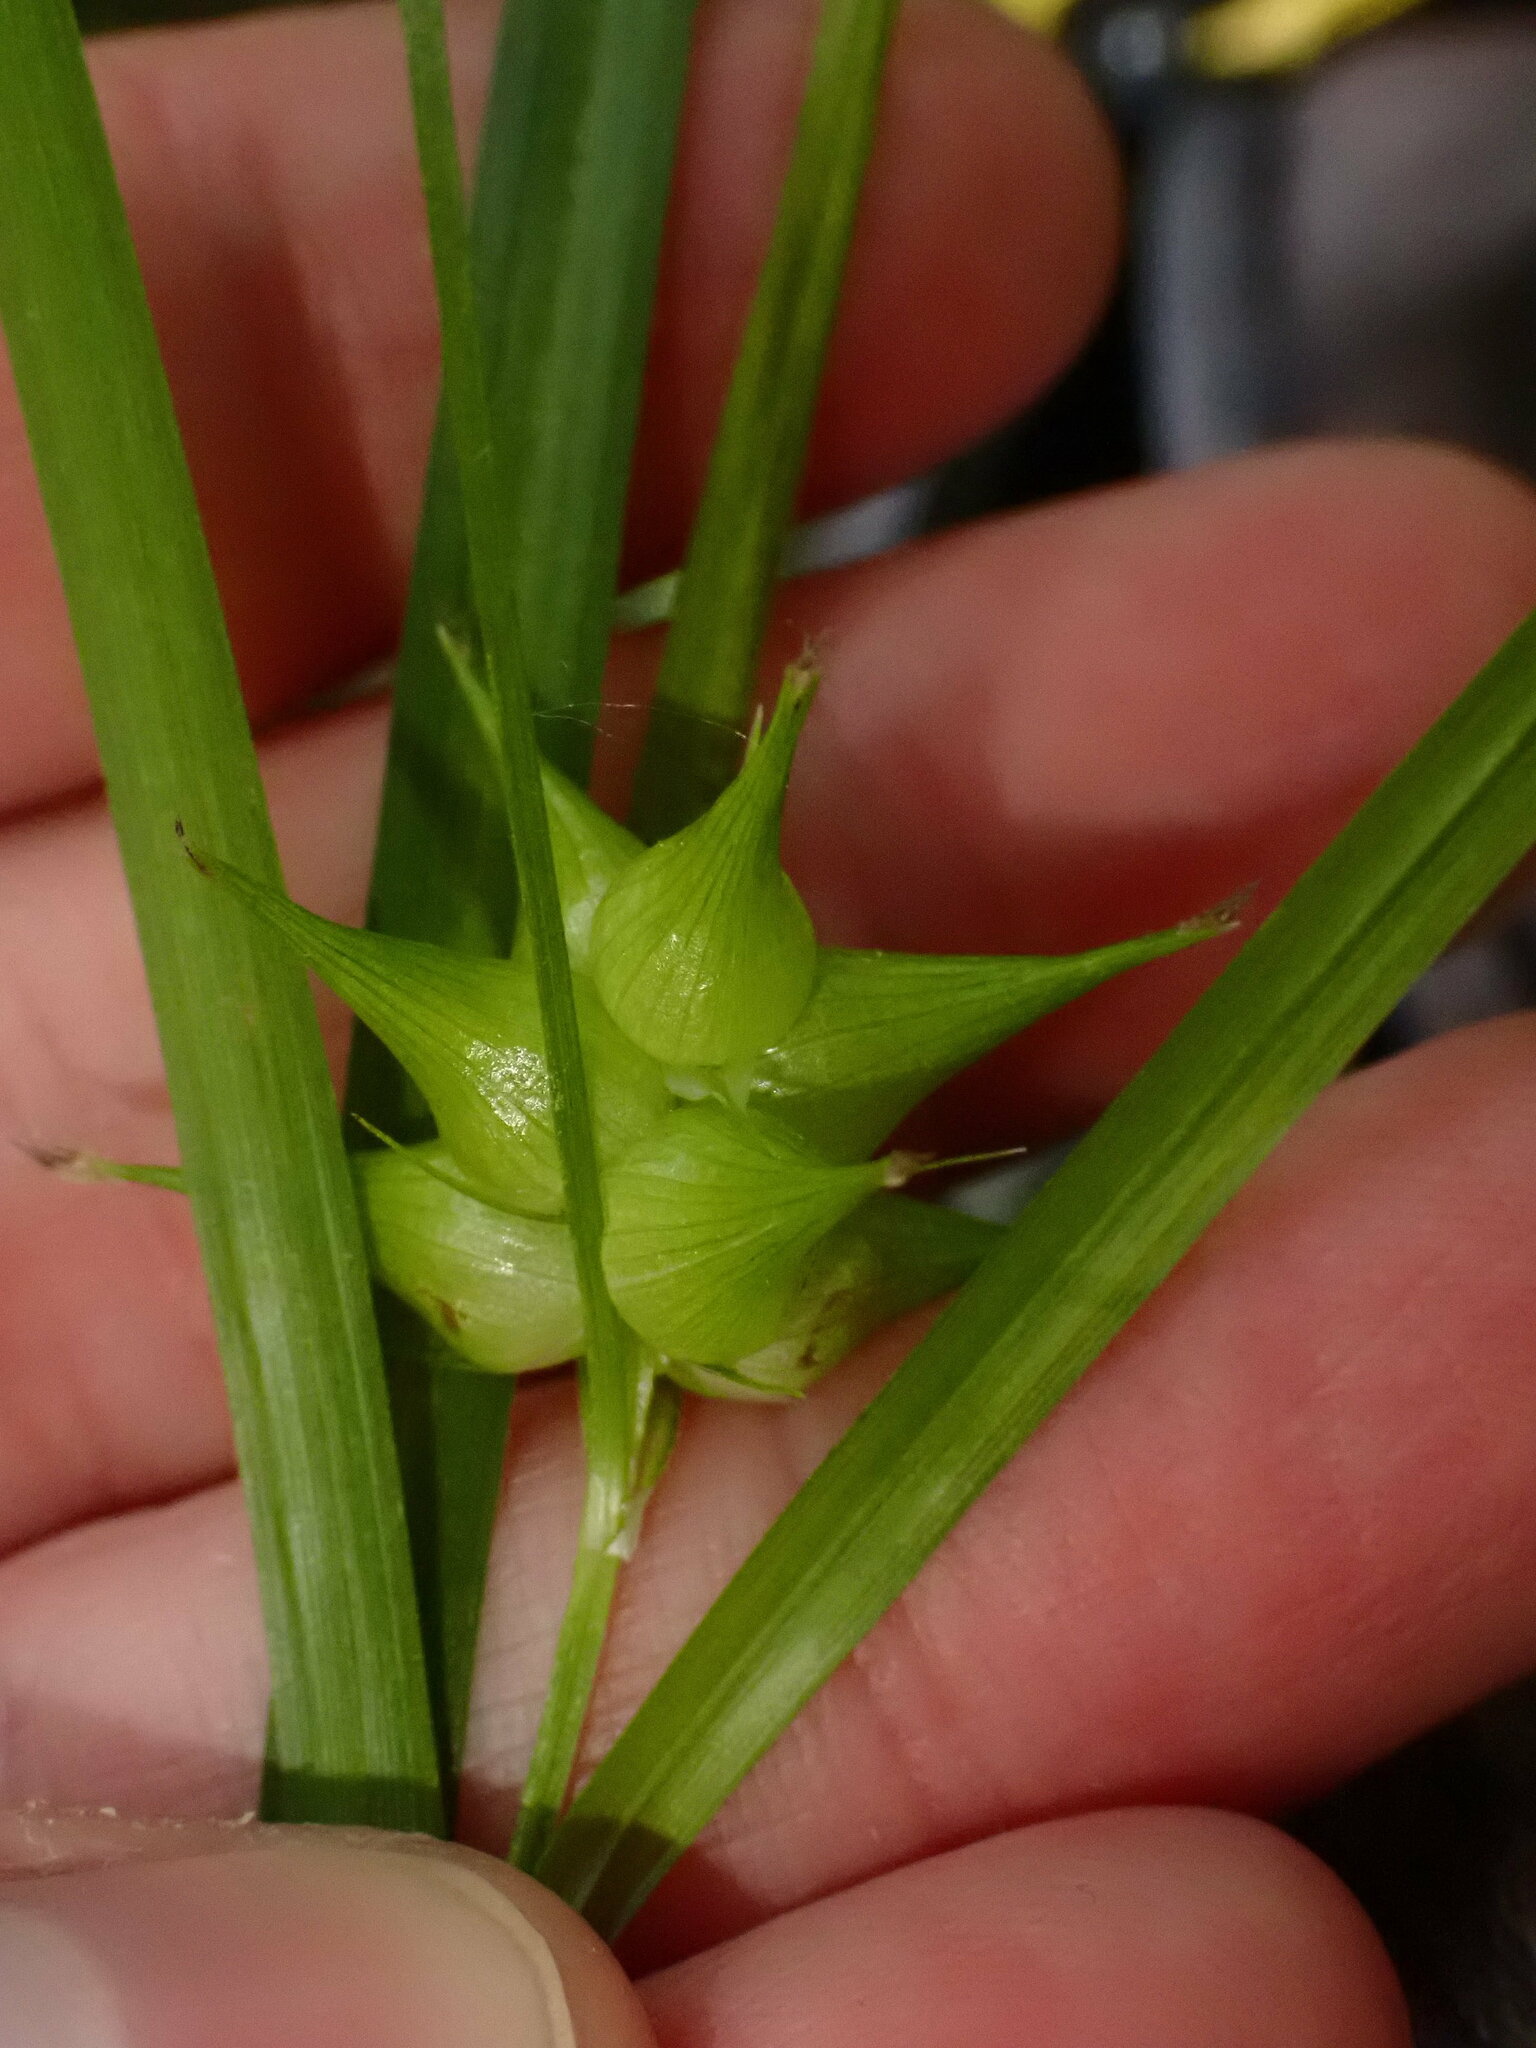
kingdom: Plantae
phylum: Tracheophyta
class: Liliopsida
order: Poales
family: Cyperaceae
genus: Carex
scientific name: Carex intumescens
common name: Greater bladder sedge
